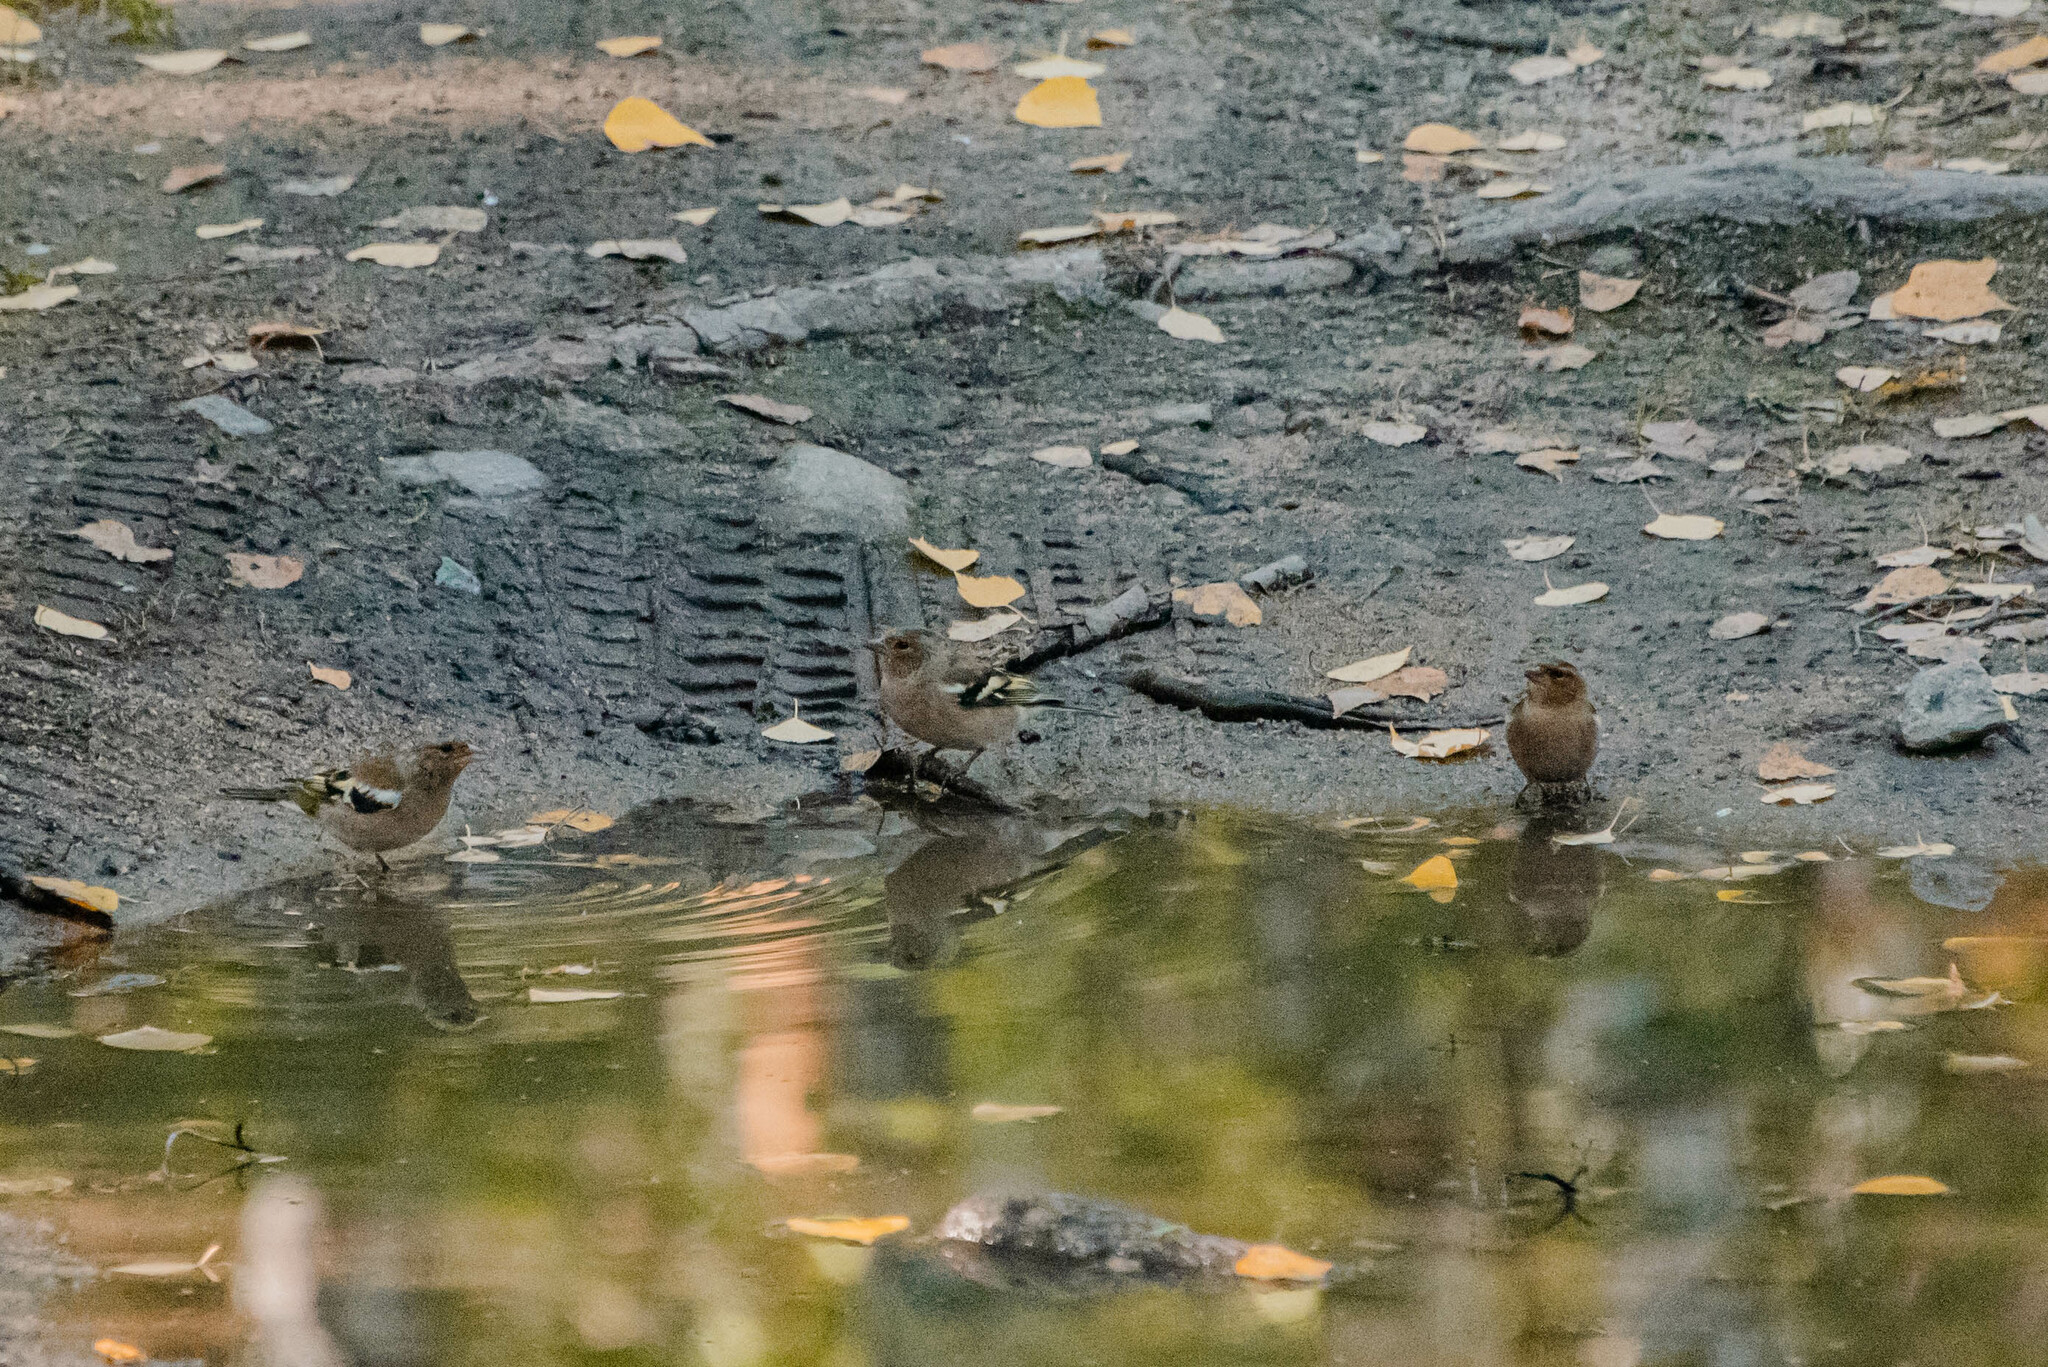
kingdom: Animalia
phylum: Chordata
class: Aves
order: Passeriformes
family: Fringillidae
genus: Fringilla
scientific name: Fringilla coelebs
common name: Common chaffinch
